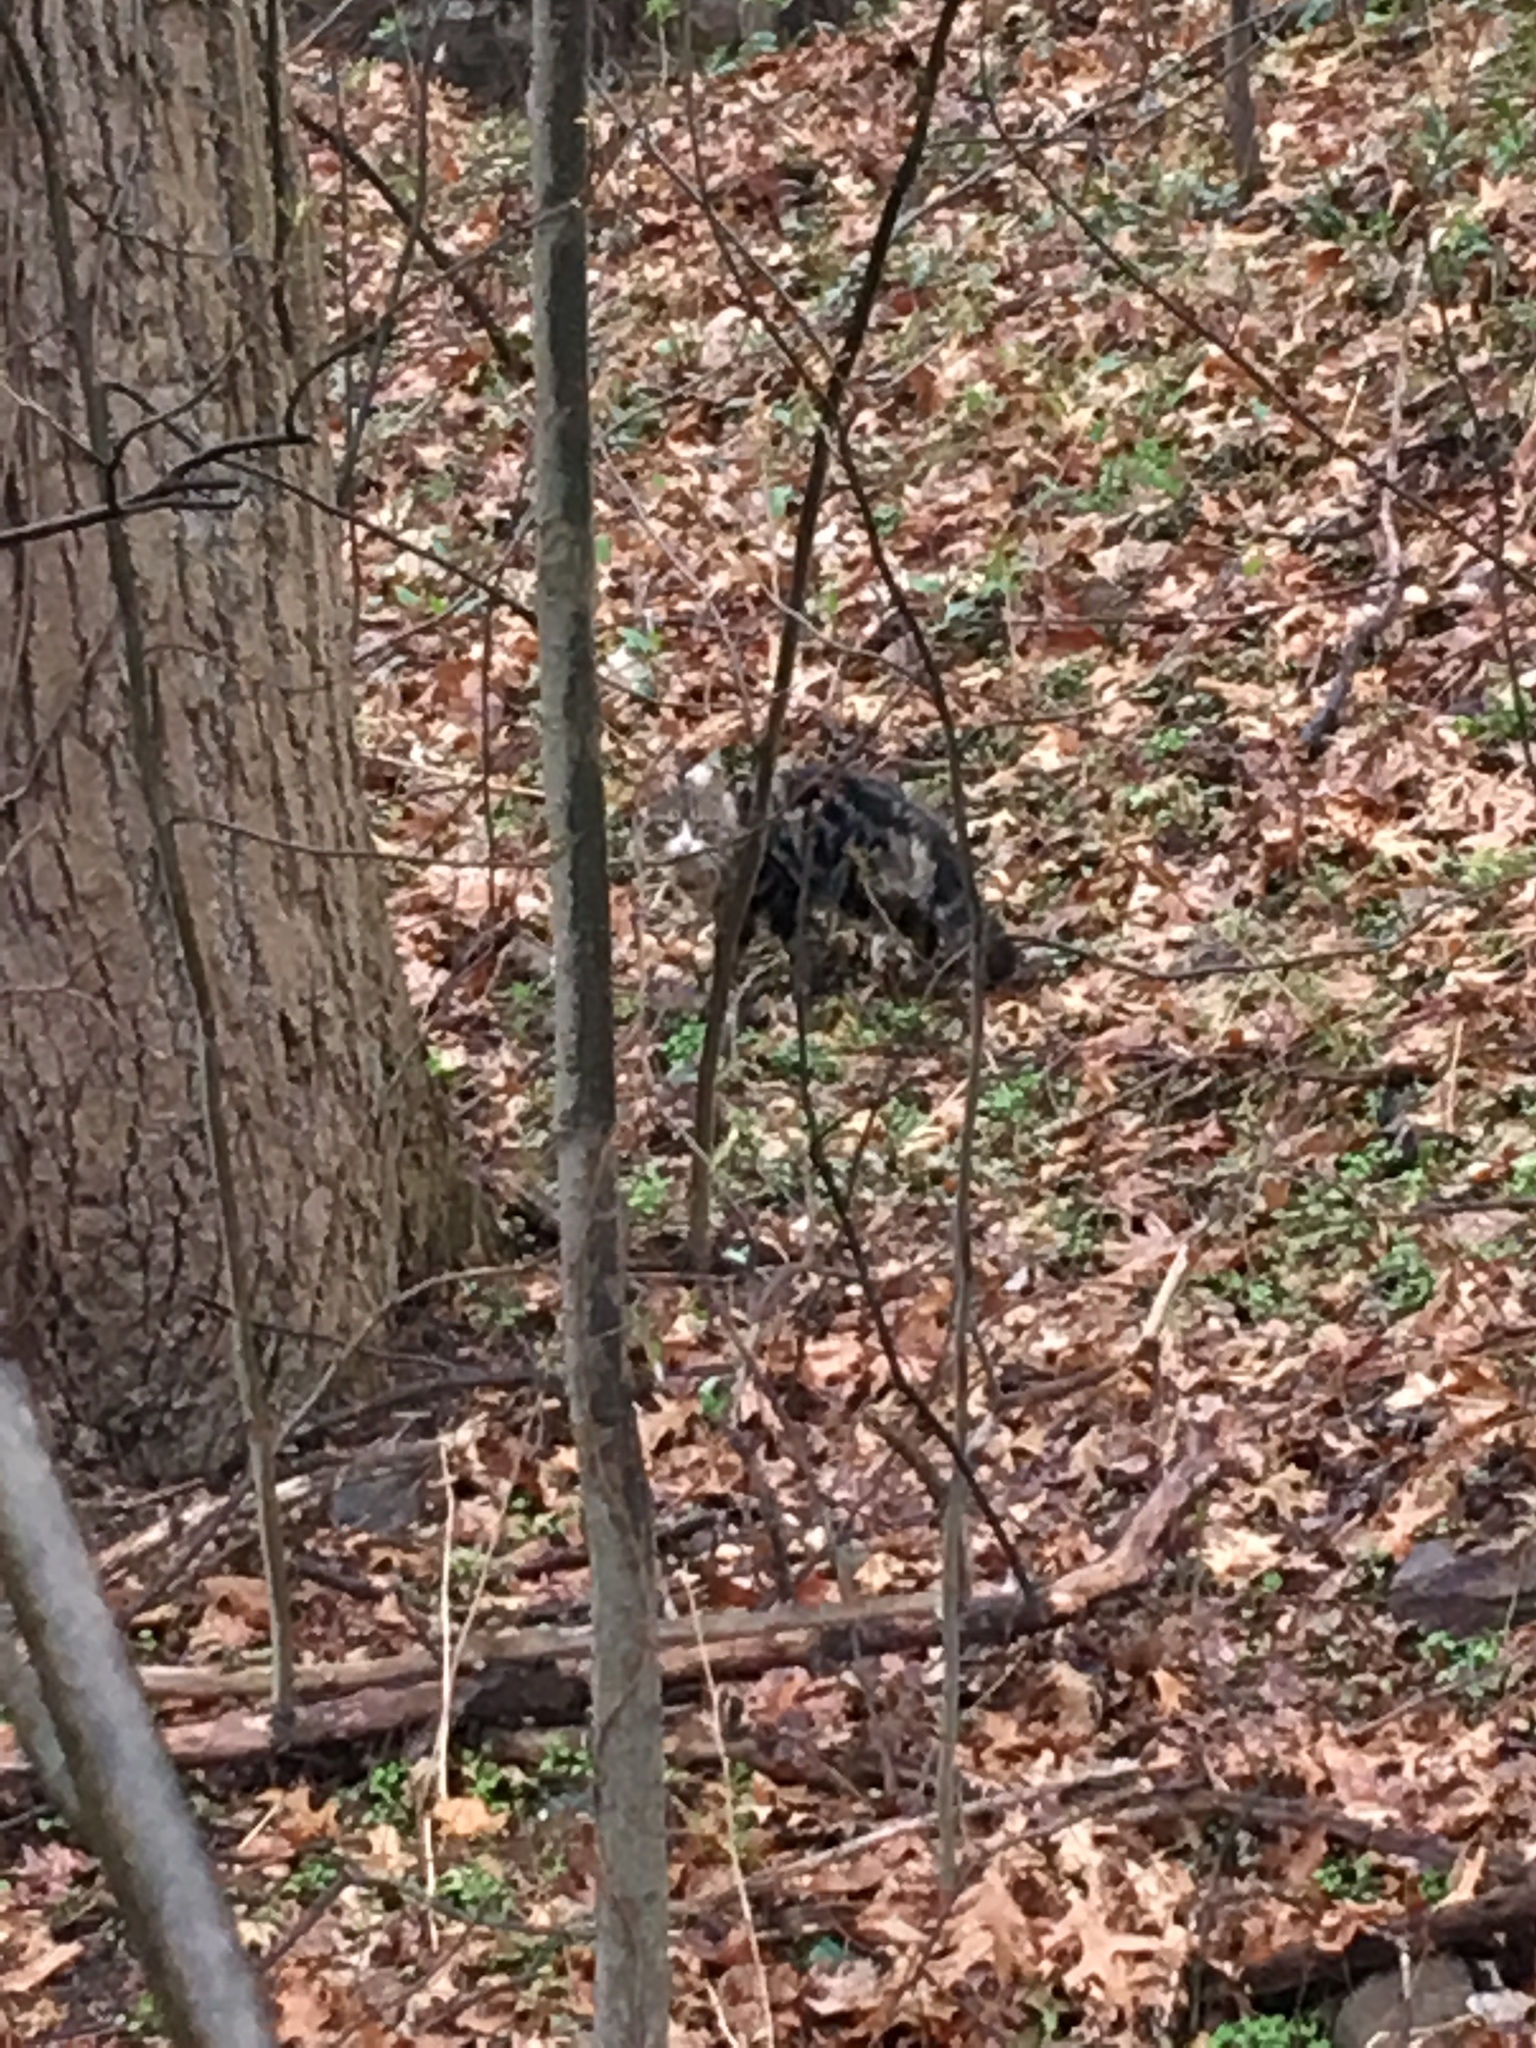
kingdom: Animalia
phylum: Chordata
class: Mammalia
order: Carnivora
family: Felidae
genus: Felis
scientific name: Felis catus
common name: Domestic cat
